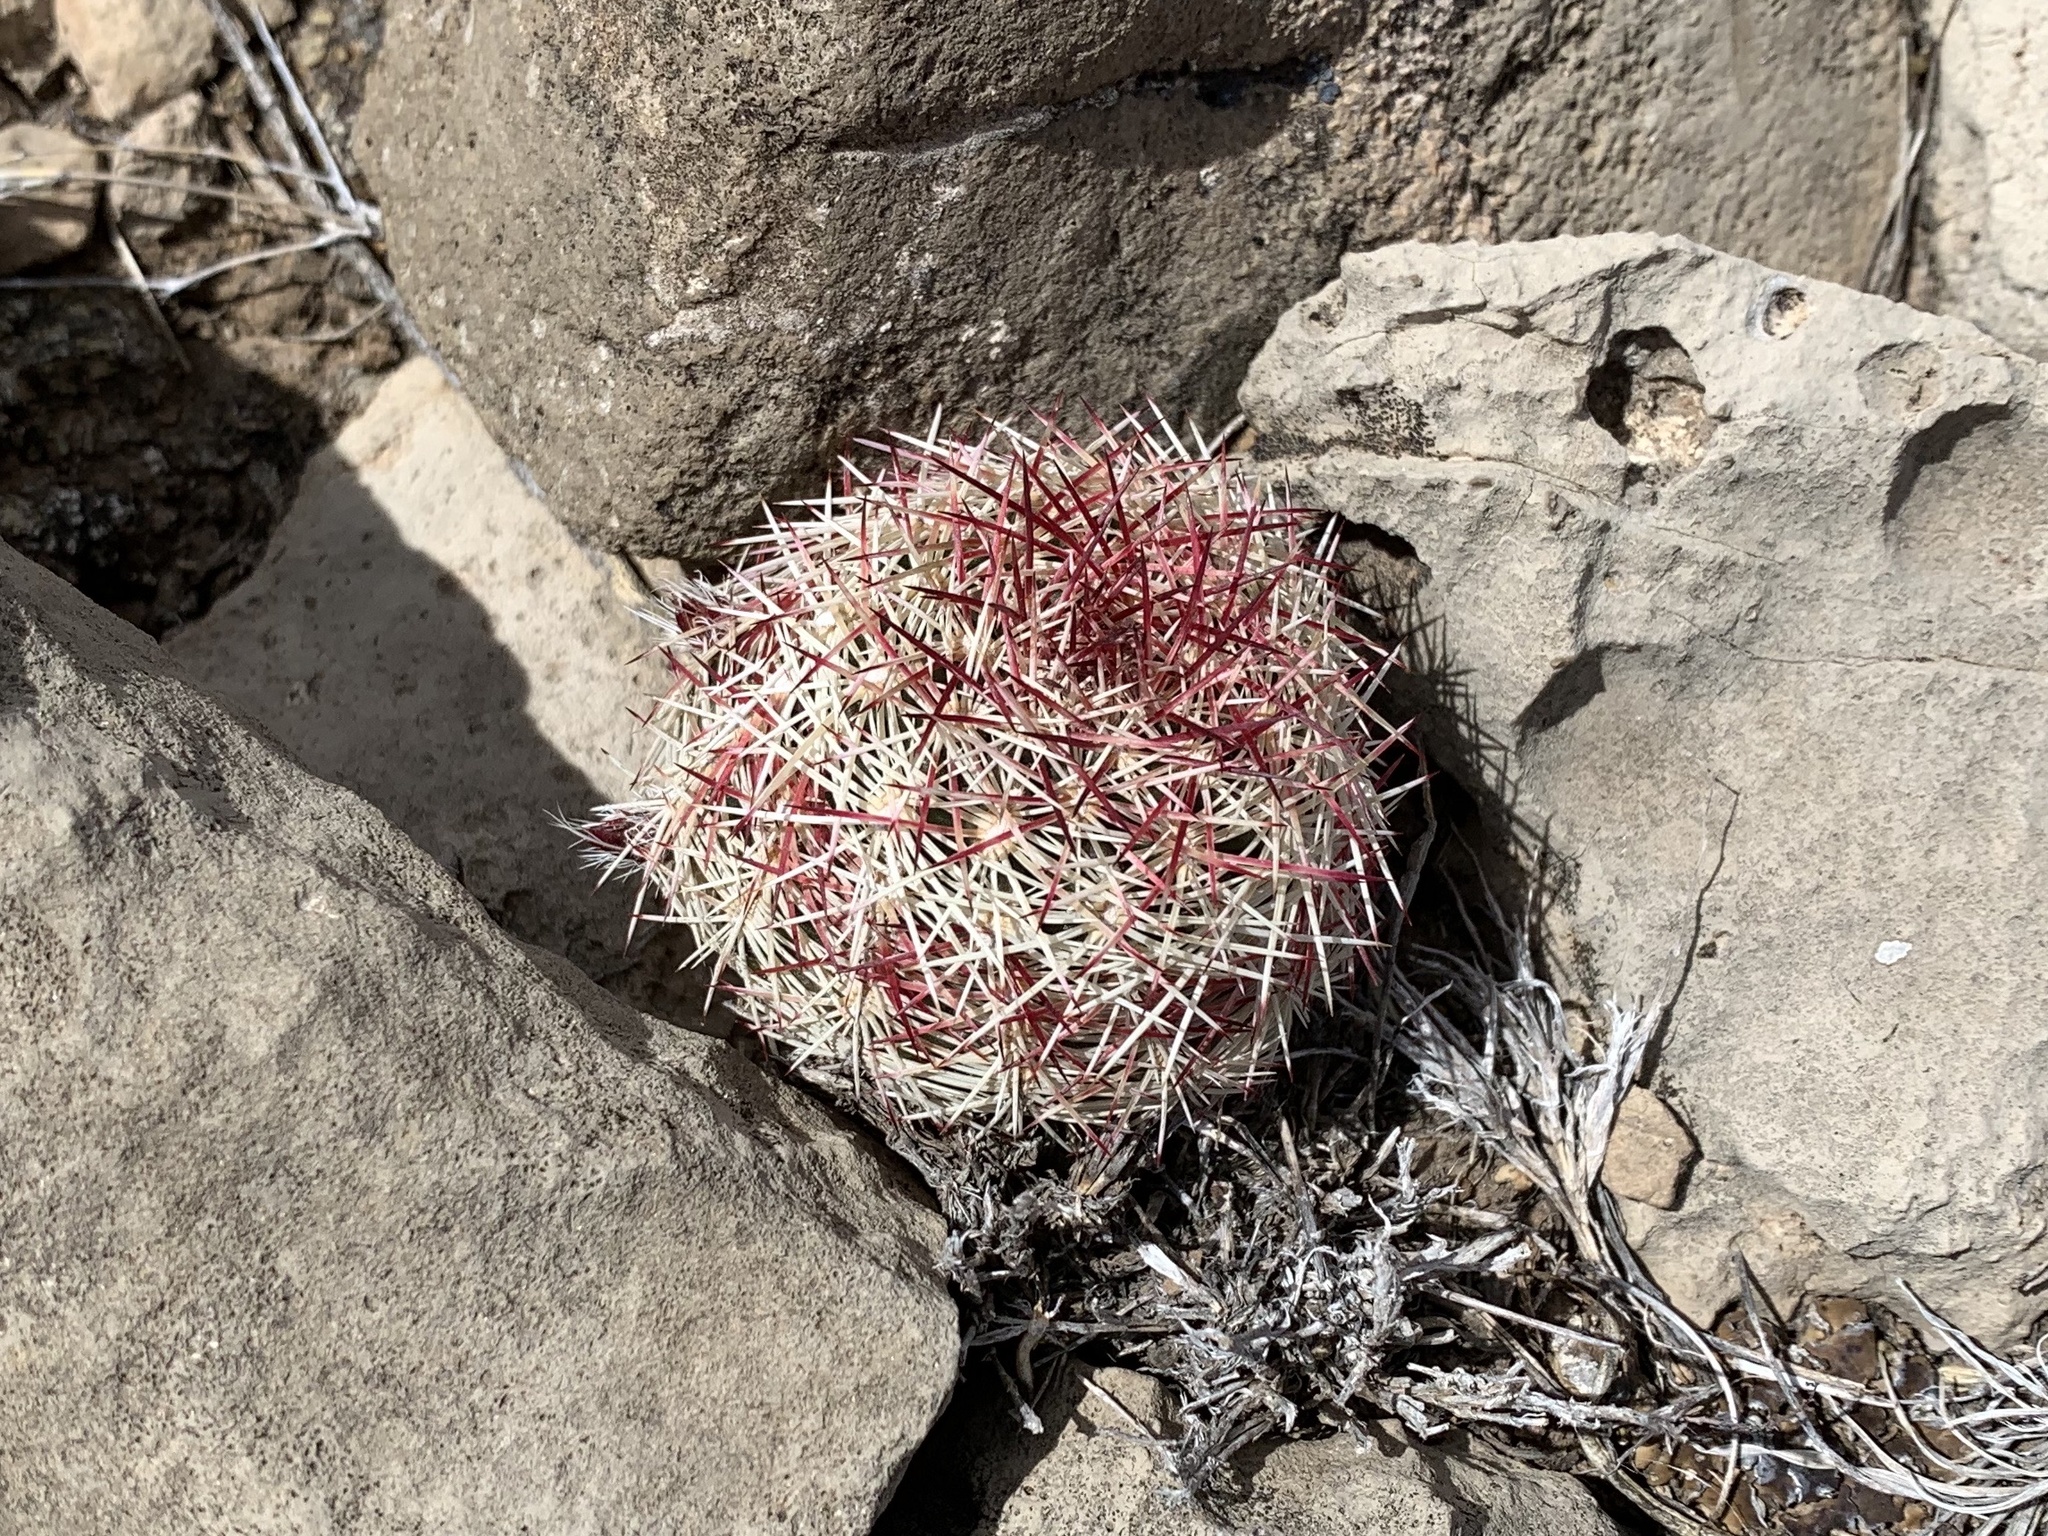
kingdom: Plantae
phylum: Tracheophyta
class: Magnoliopsida
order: Caryophyllales
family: Cactaceae
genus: Echinocereus
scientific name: Echinocereus viridiflorus
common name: Nylon hedgehog cactus
